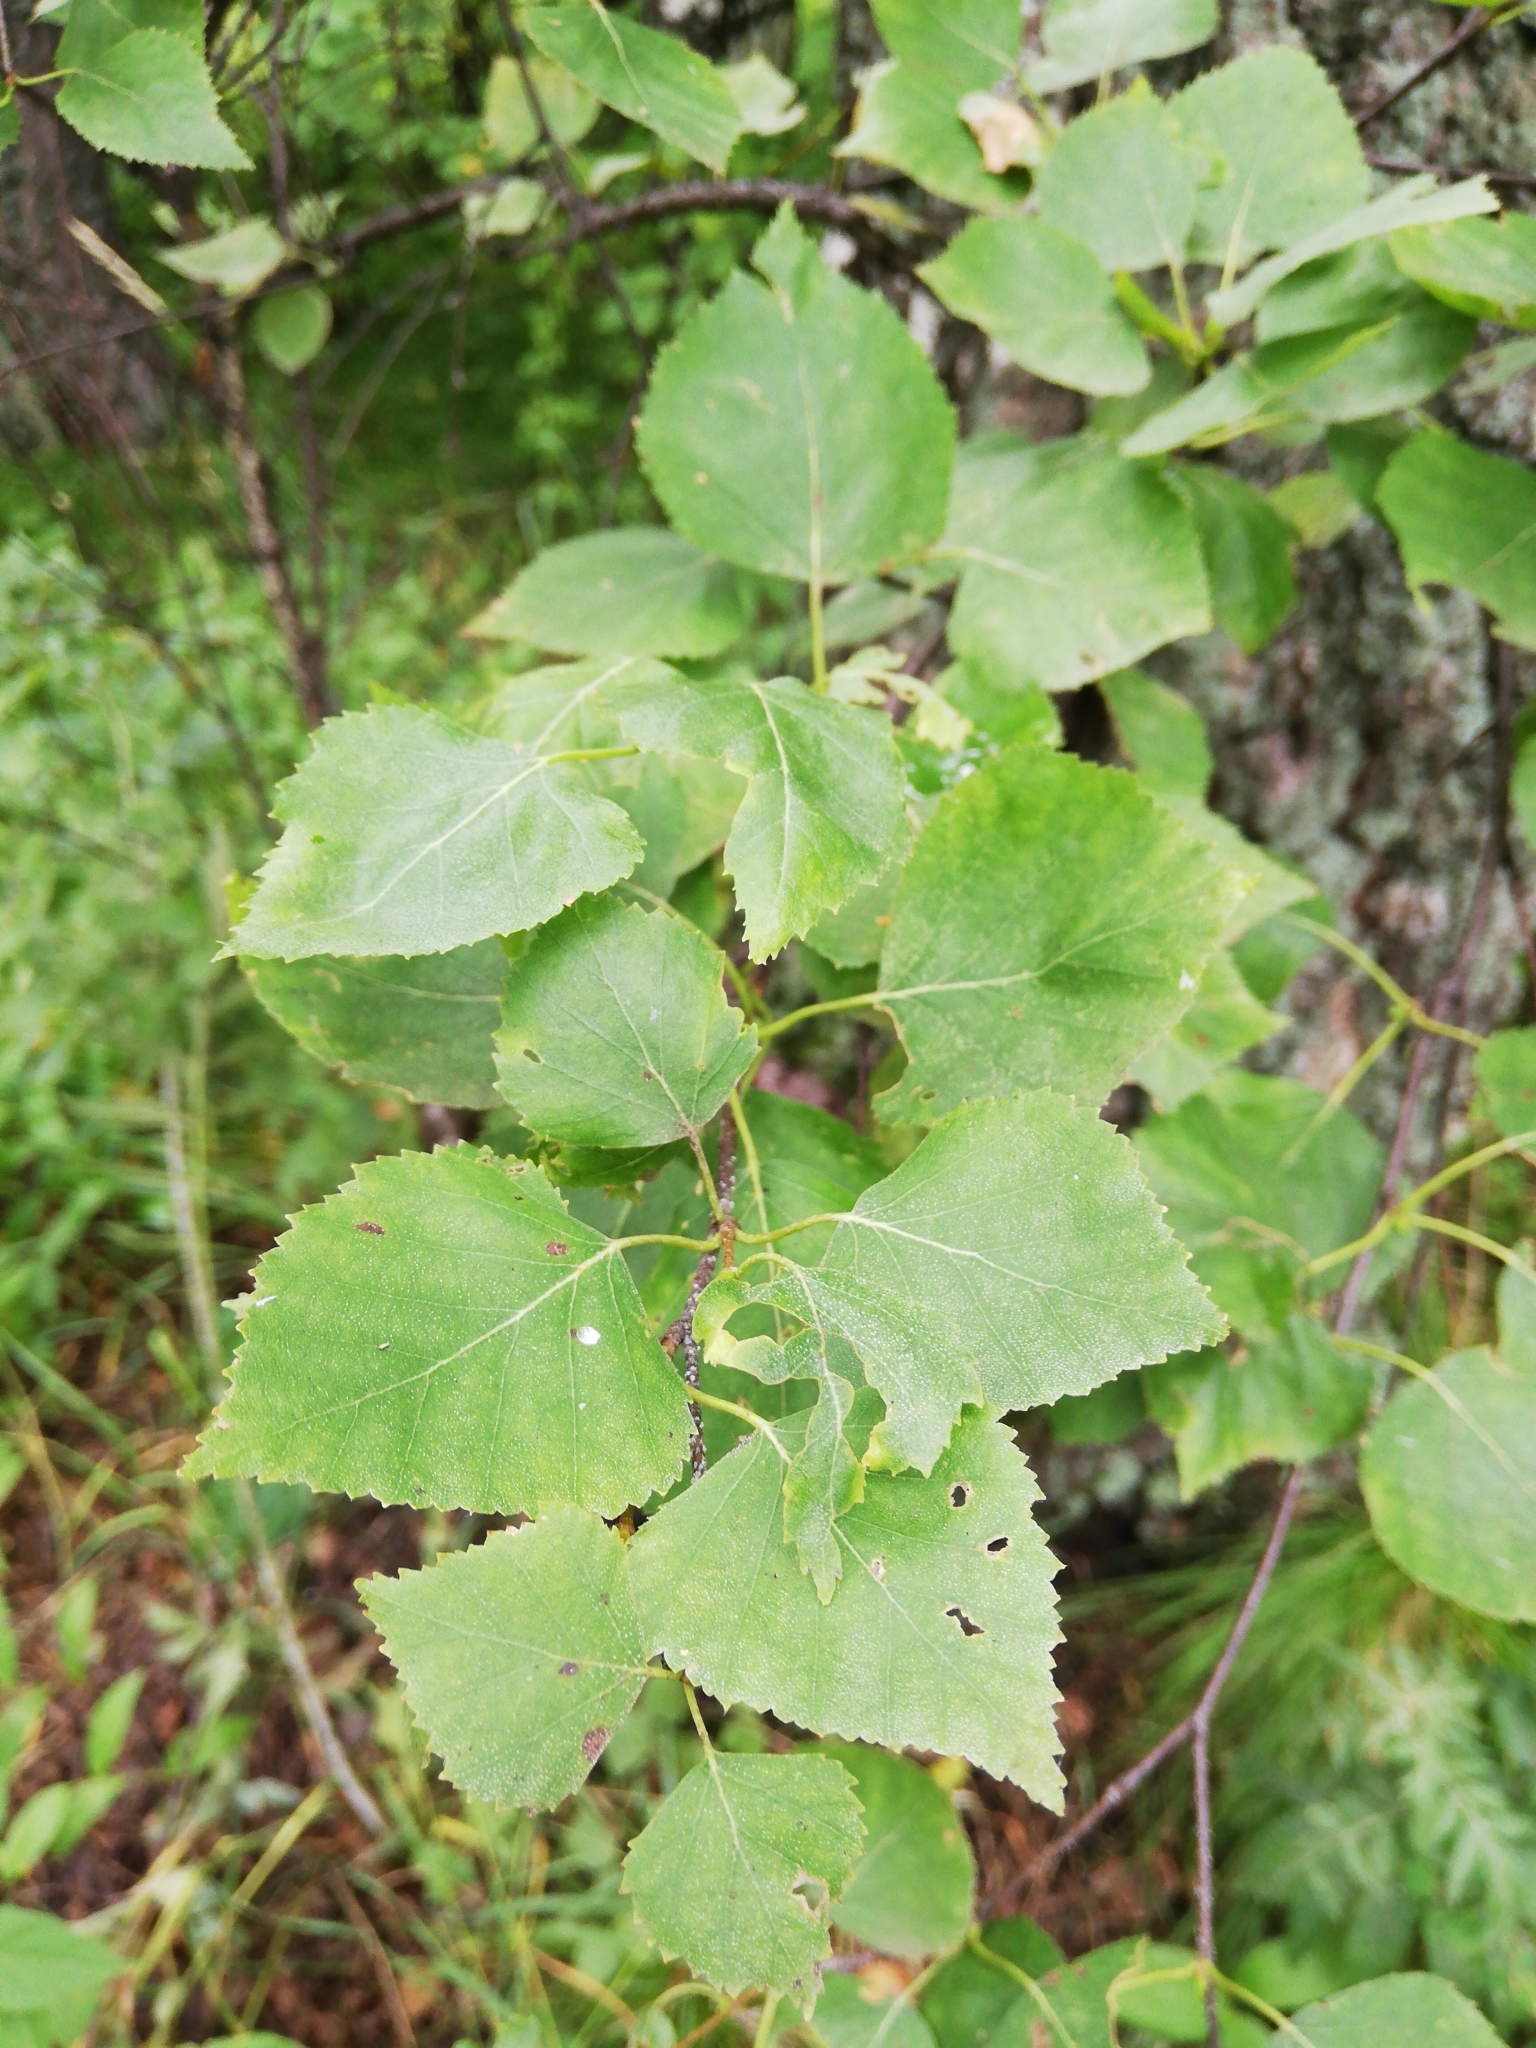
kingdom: Plantae
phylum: Tracheophyta
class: Magnoliopsida
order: Fagales
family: Betulaceae
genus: Betula
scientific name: Betula pubescens
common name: Downy birch
